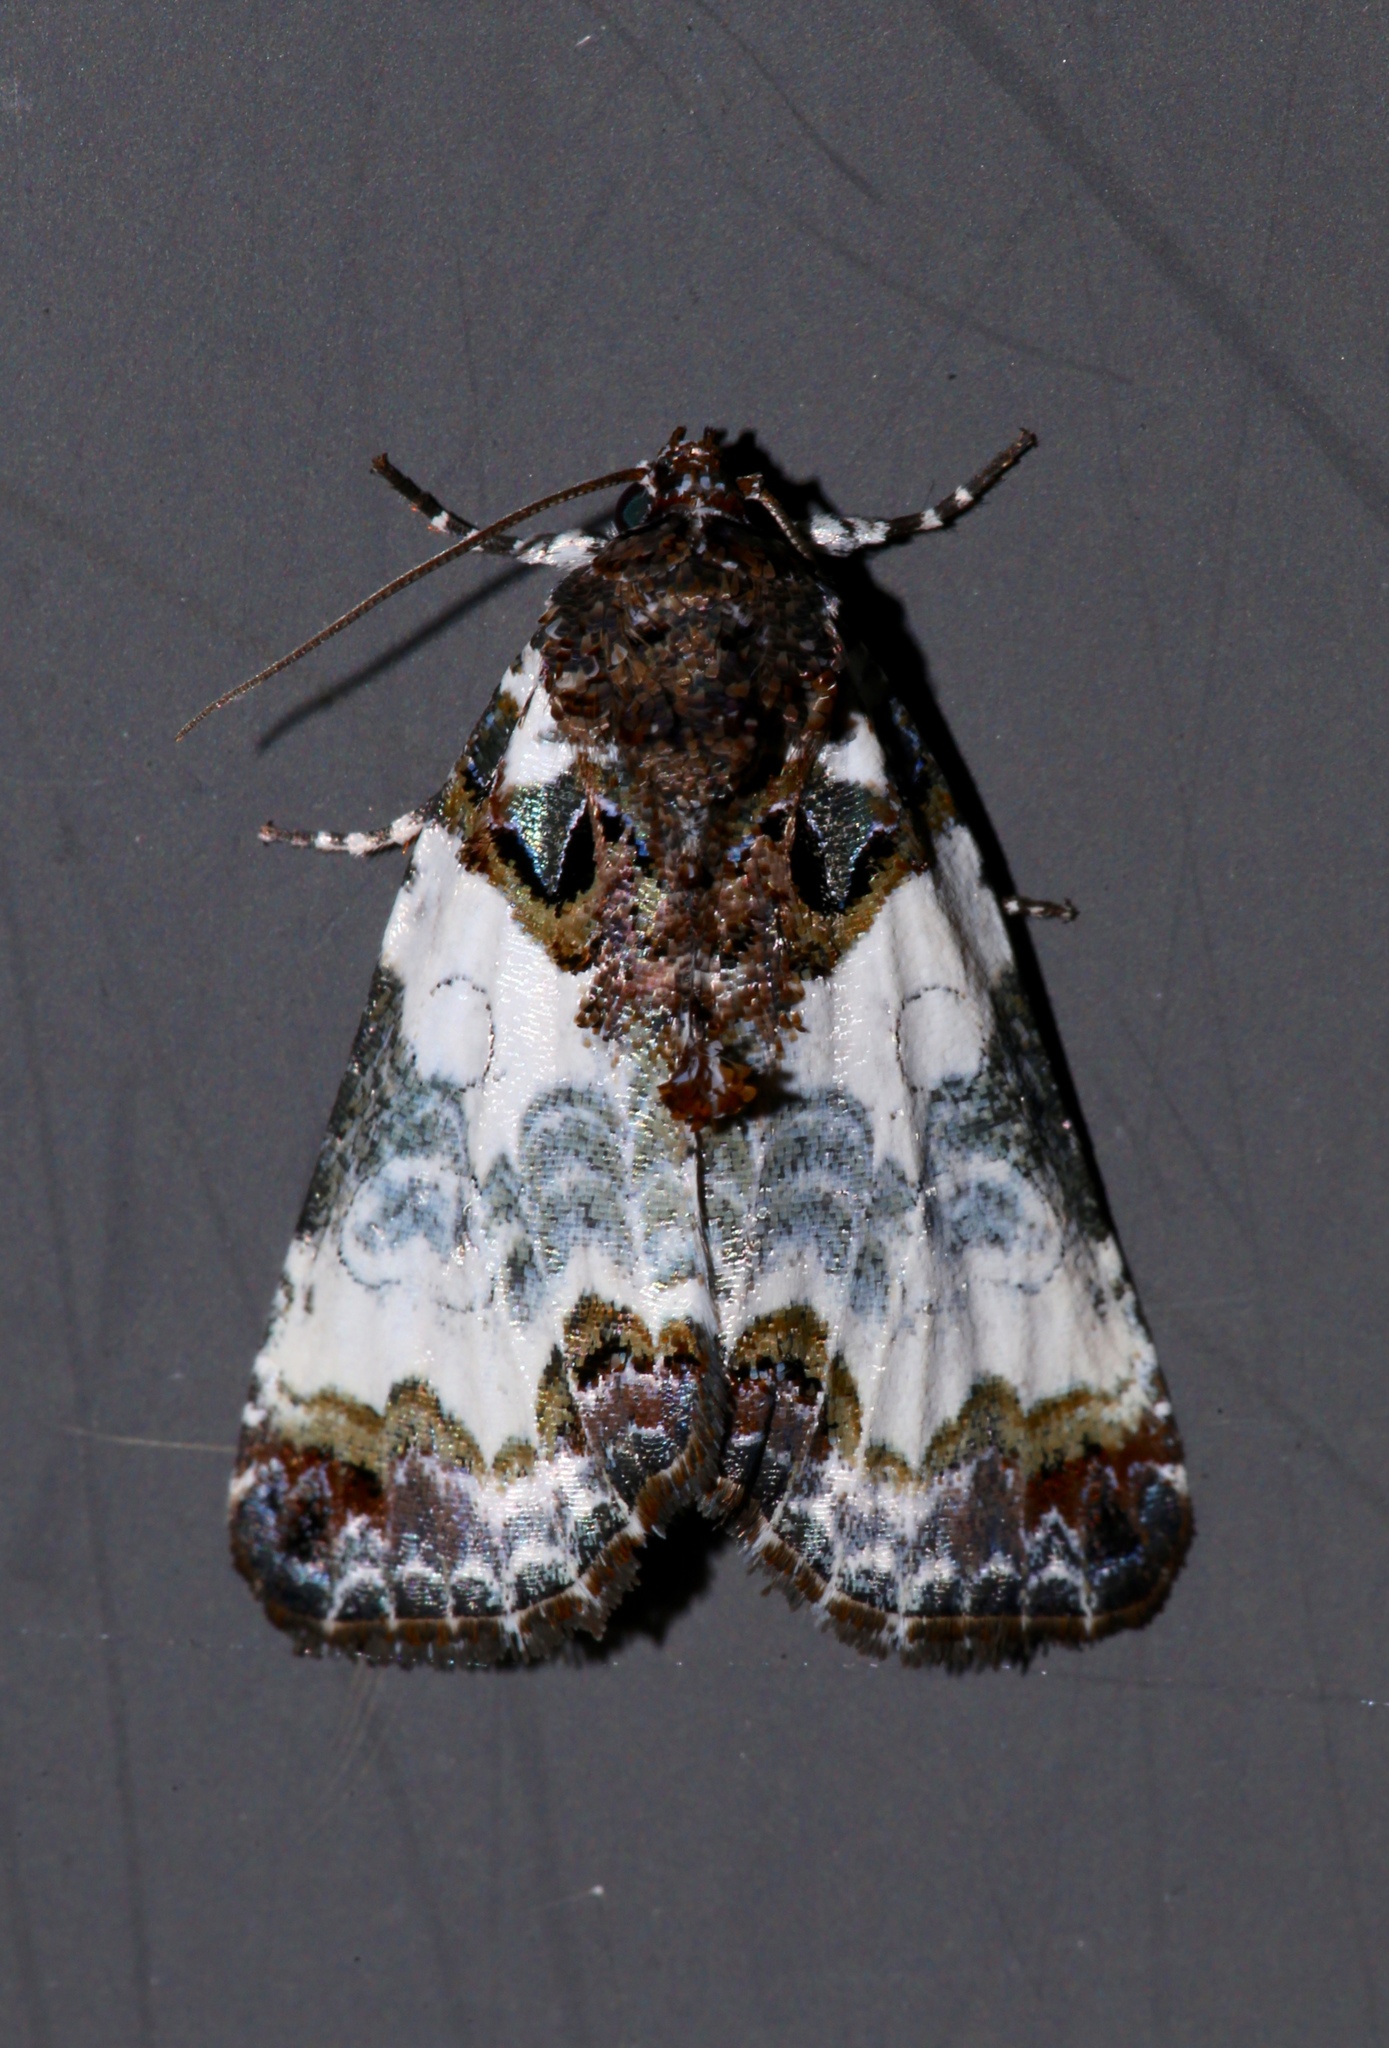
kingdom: Animalia
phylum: Arthropoda
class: Insecta
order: Lepidoptera
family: Noctuidae
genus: Cerma
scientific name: Cerma cerintha
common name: Tufted bird-dropping moth
